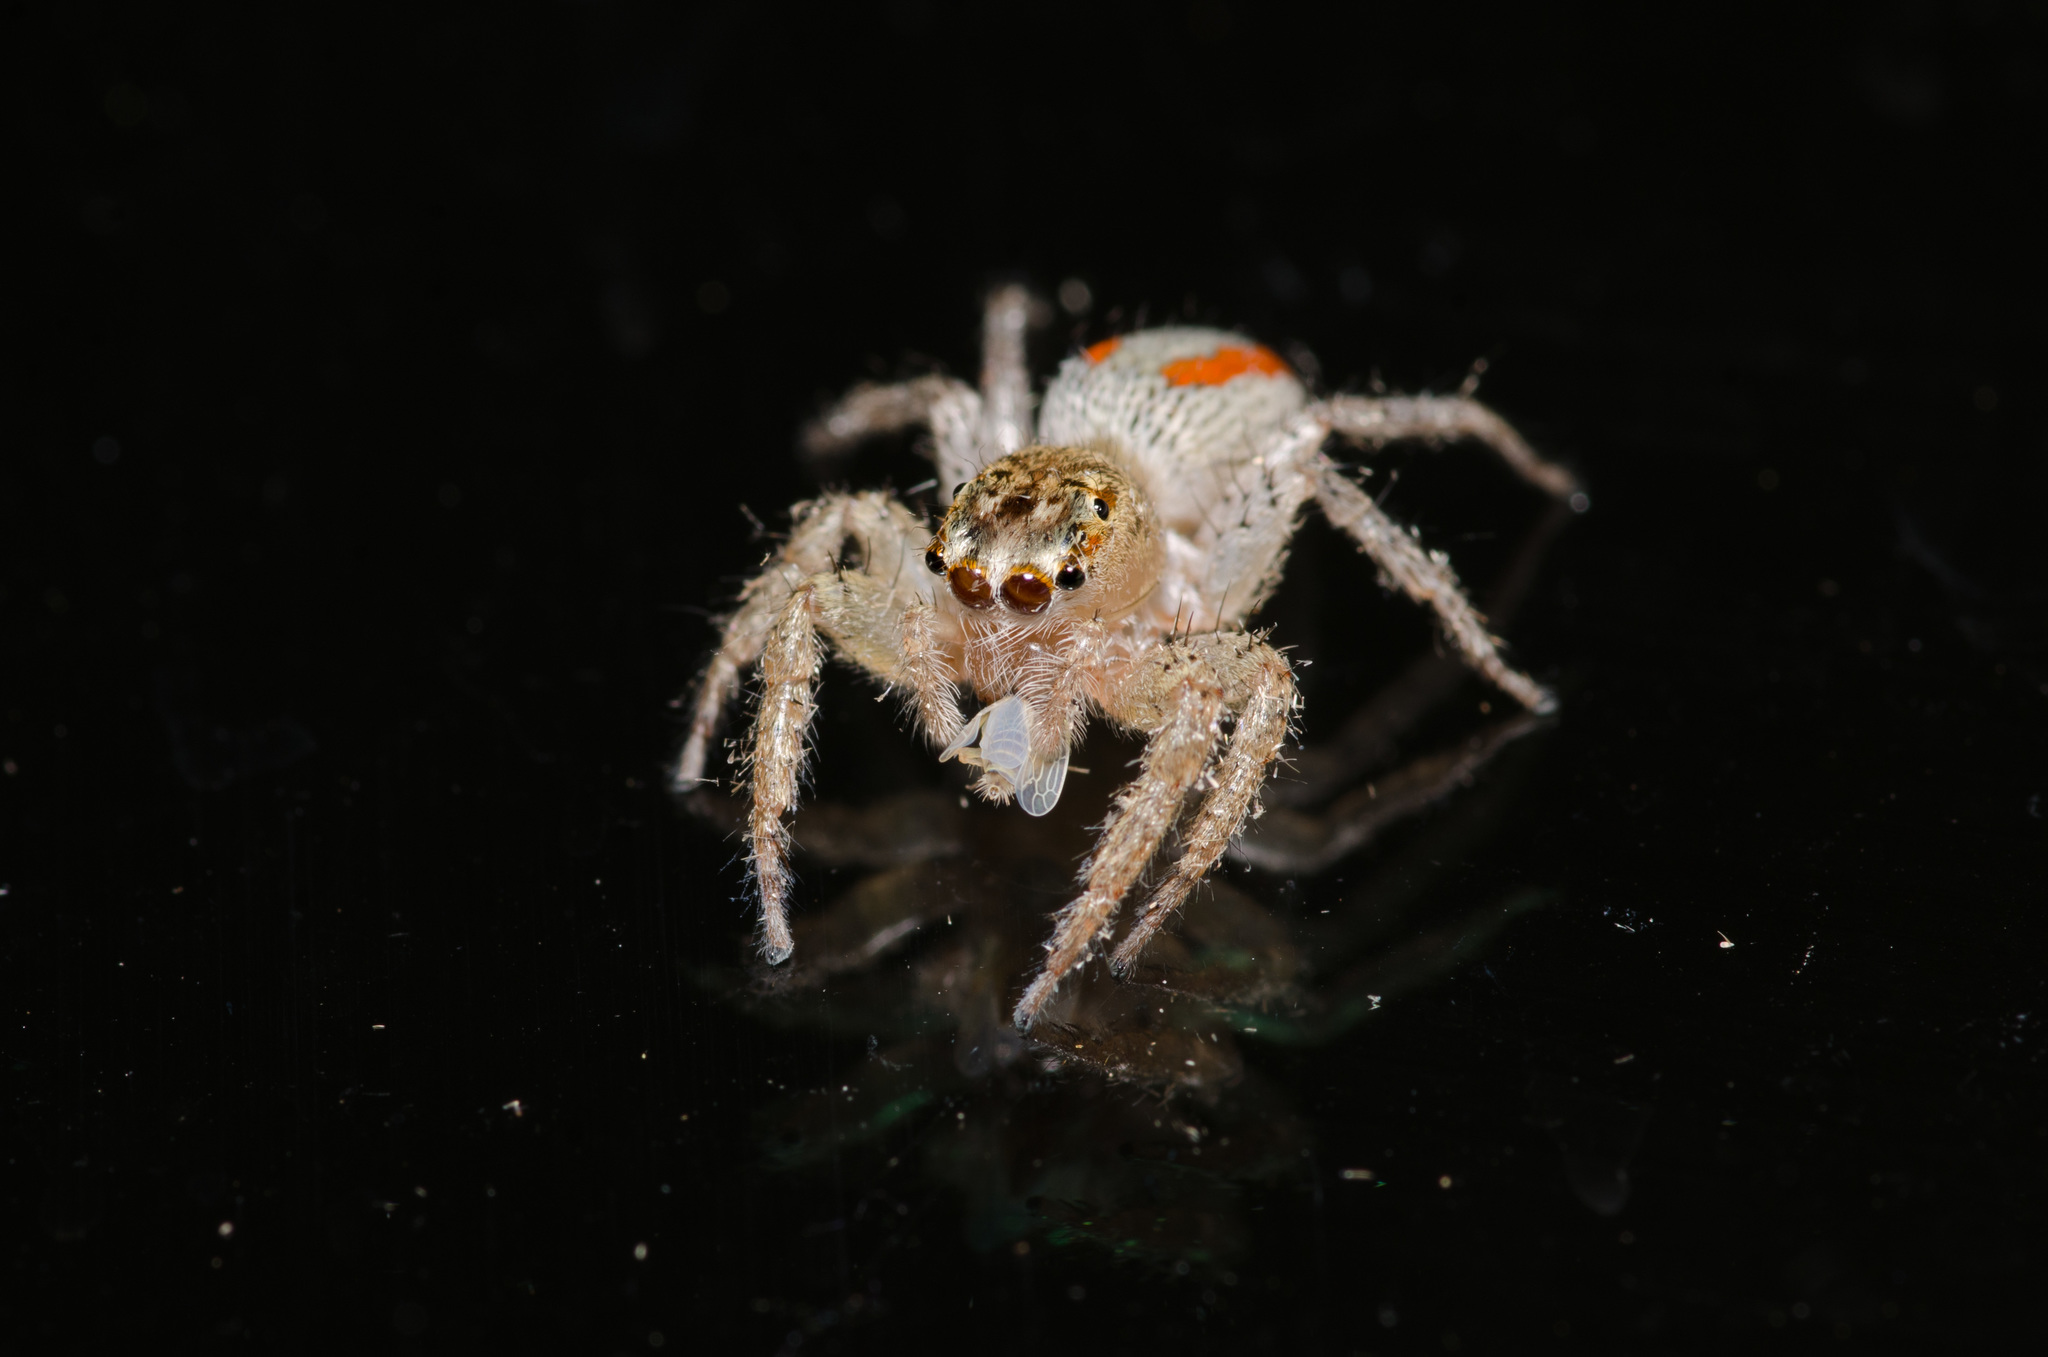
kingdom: Animalia
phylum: Arthropoda
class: Arachnida
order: Araneae
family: Salticidae
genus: Maevia
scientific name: Maevia inclemens
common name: Dimorphic jumper
